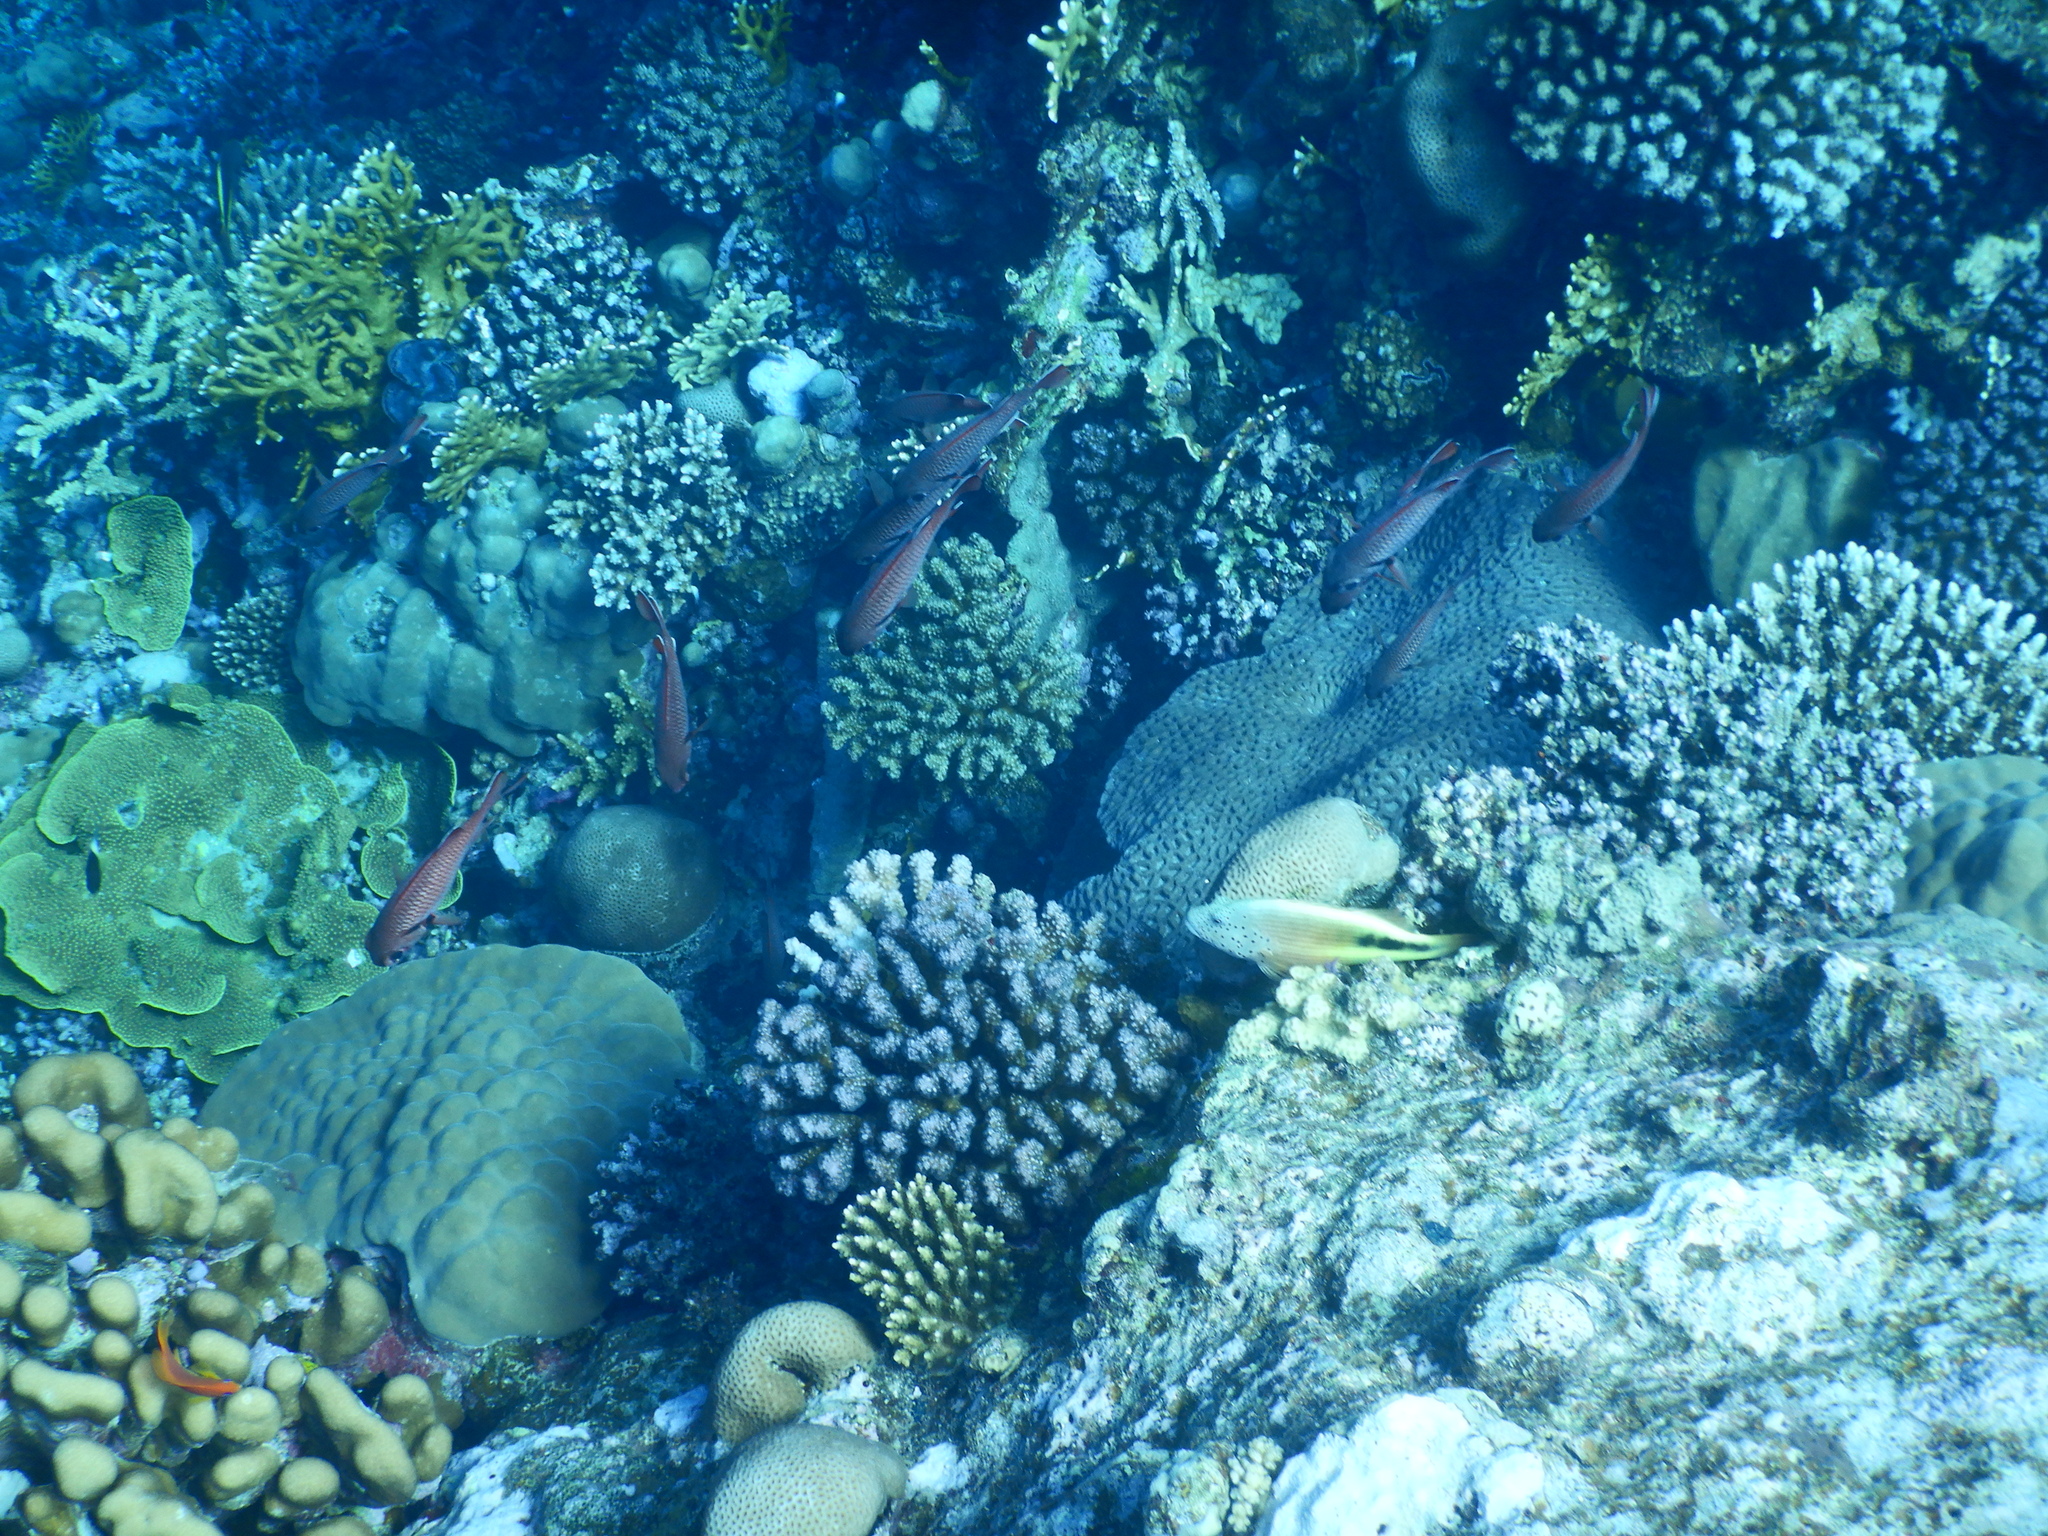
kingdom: Animalia
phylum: Chordata
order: Perciformes
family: Cirrhitidae
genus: Paracirrhites
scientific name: Paracirrhites forsteri
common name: Freckled hawkfish
